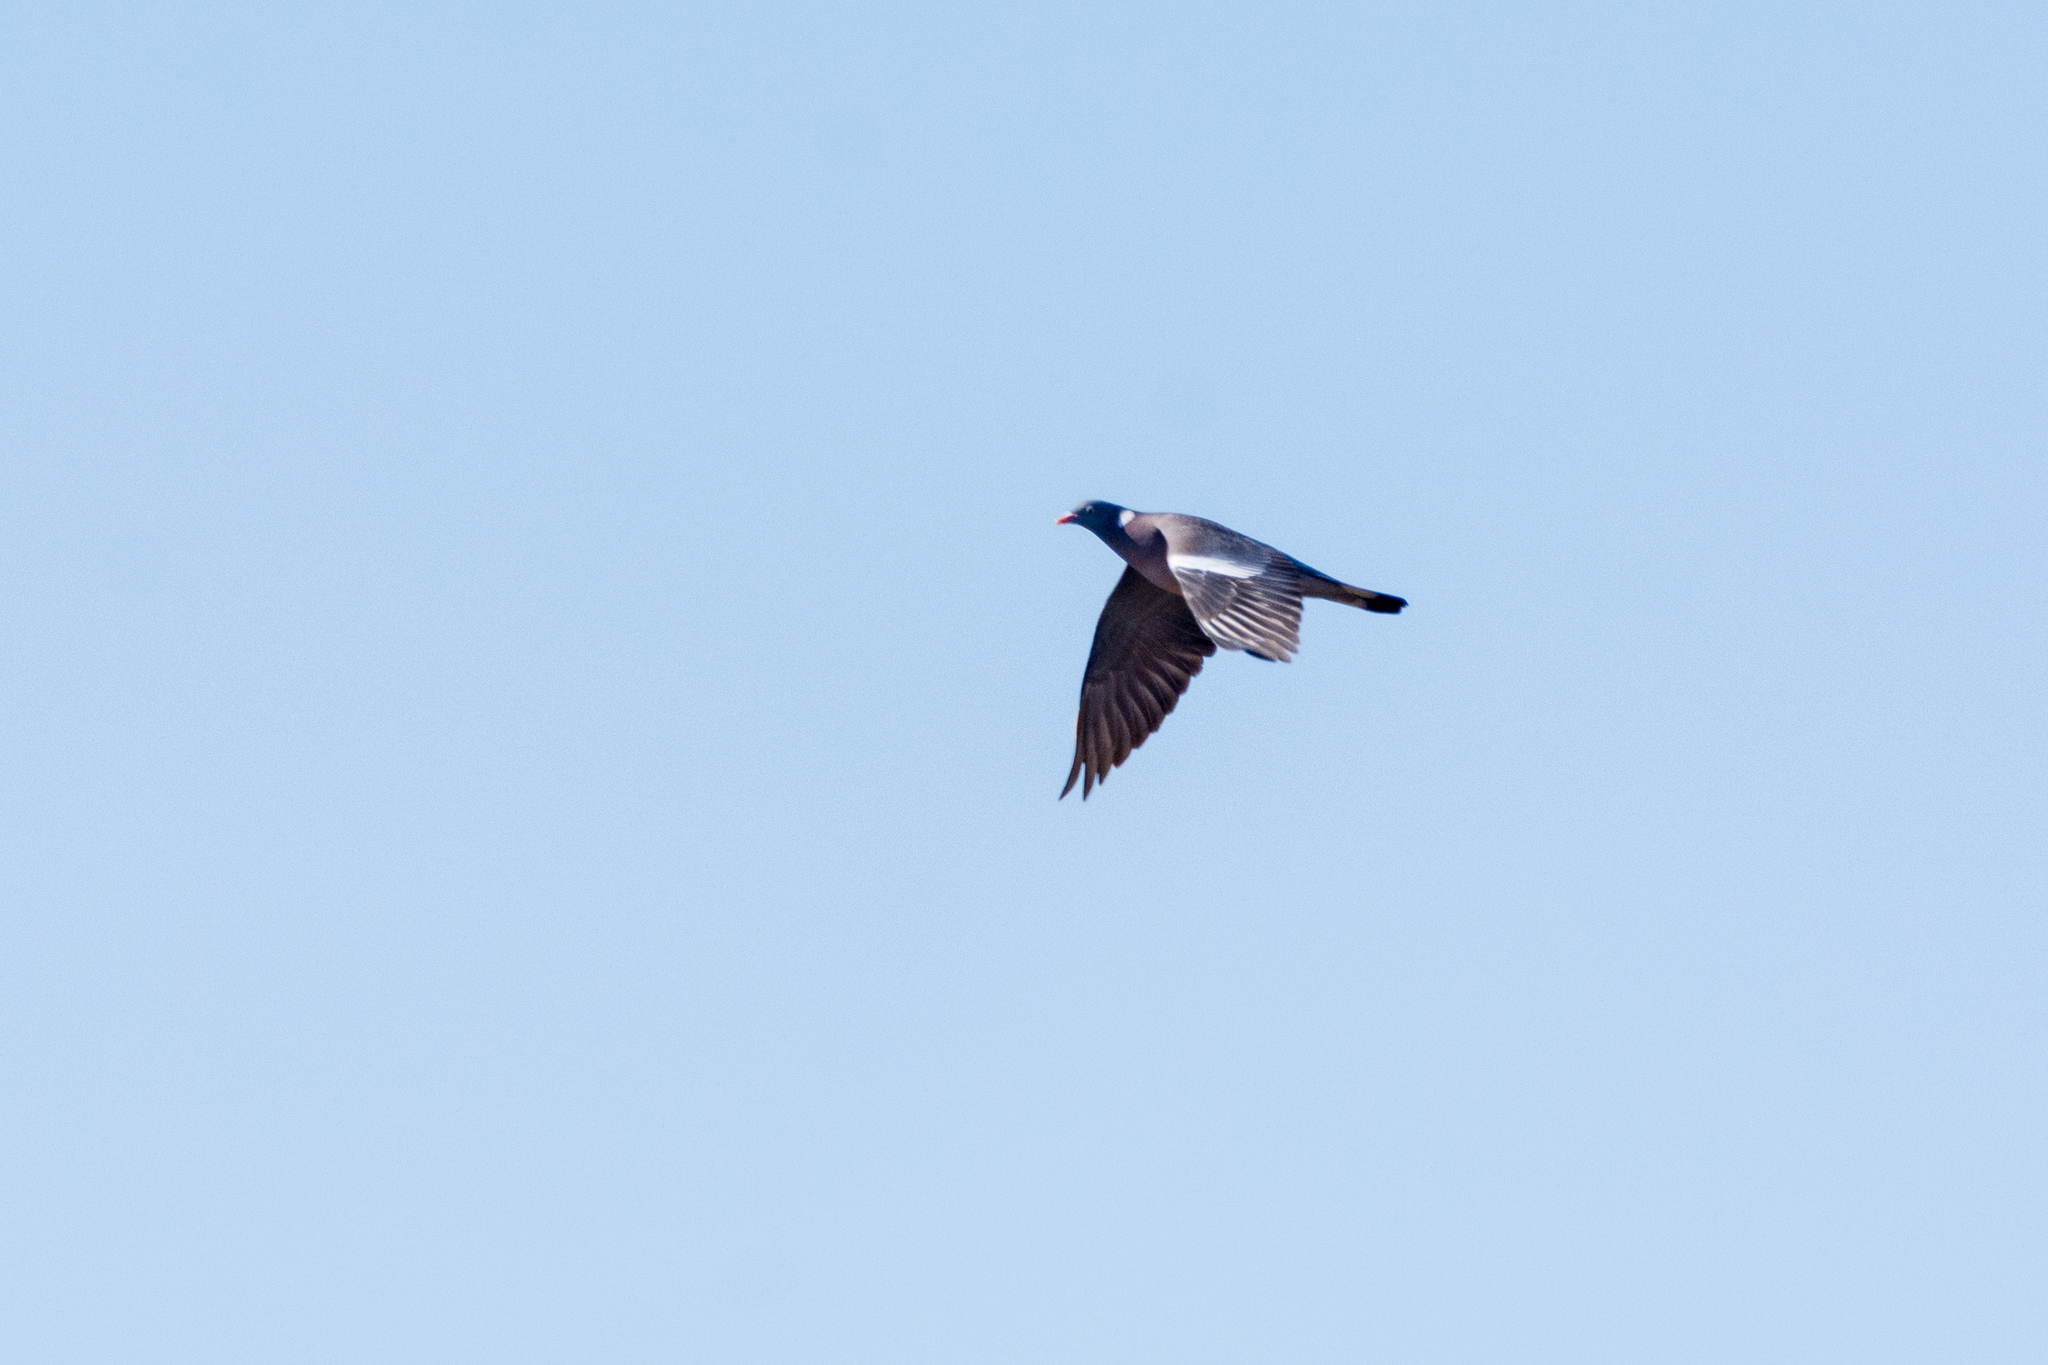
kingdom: Animalia
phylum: Chordata
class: Aves
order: Columbiformes
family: Columbidae
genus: Columba
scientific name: Columba palumbus
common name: Common wood pigeon
